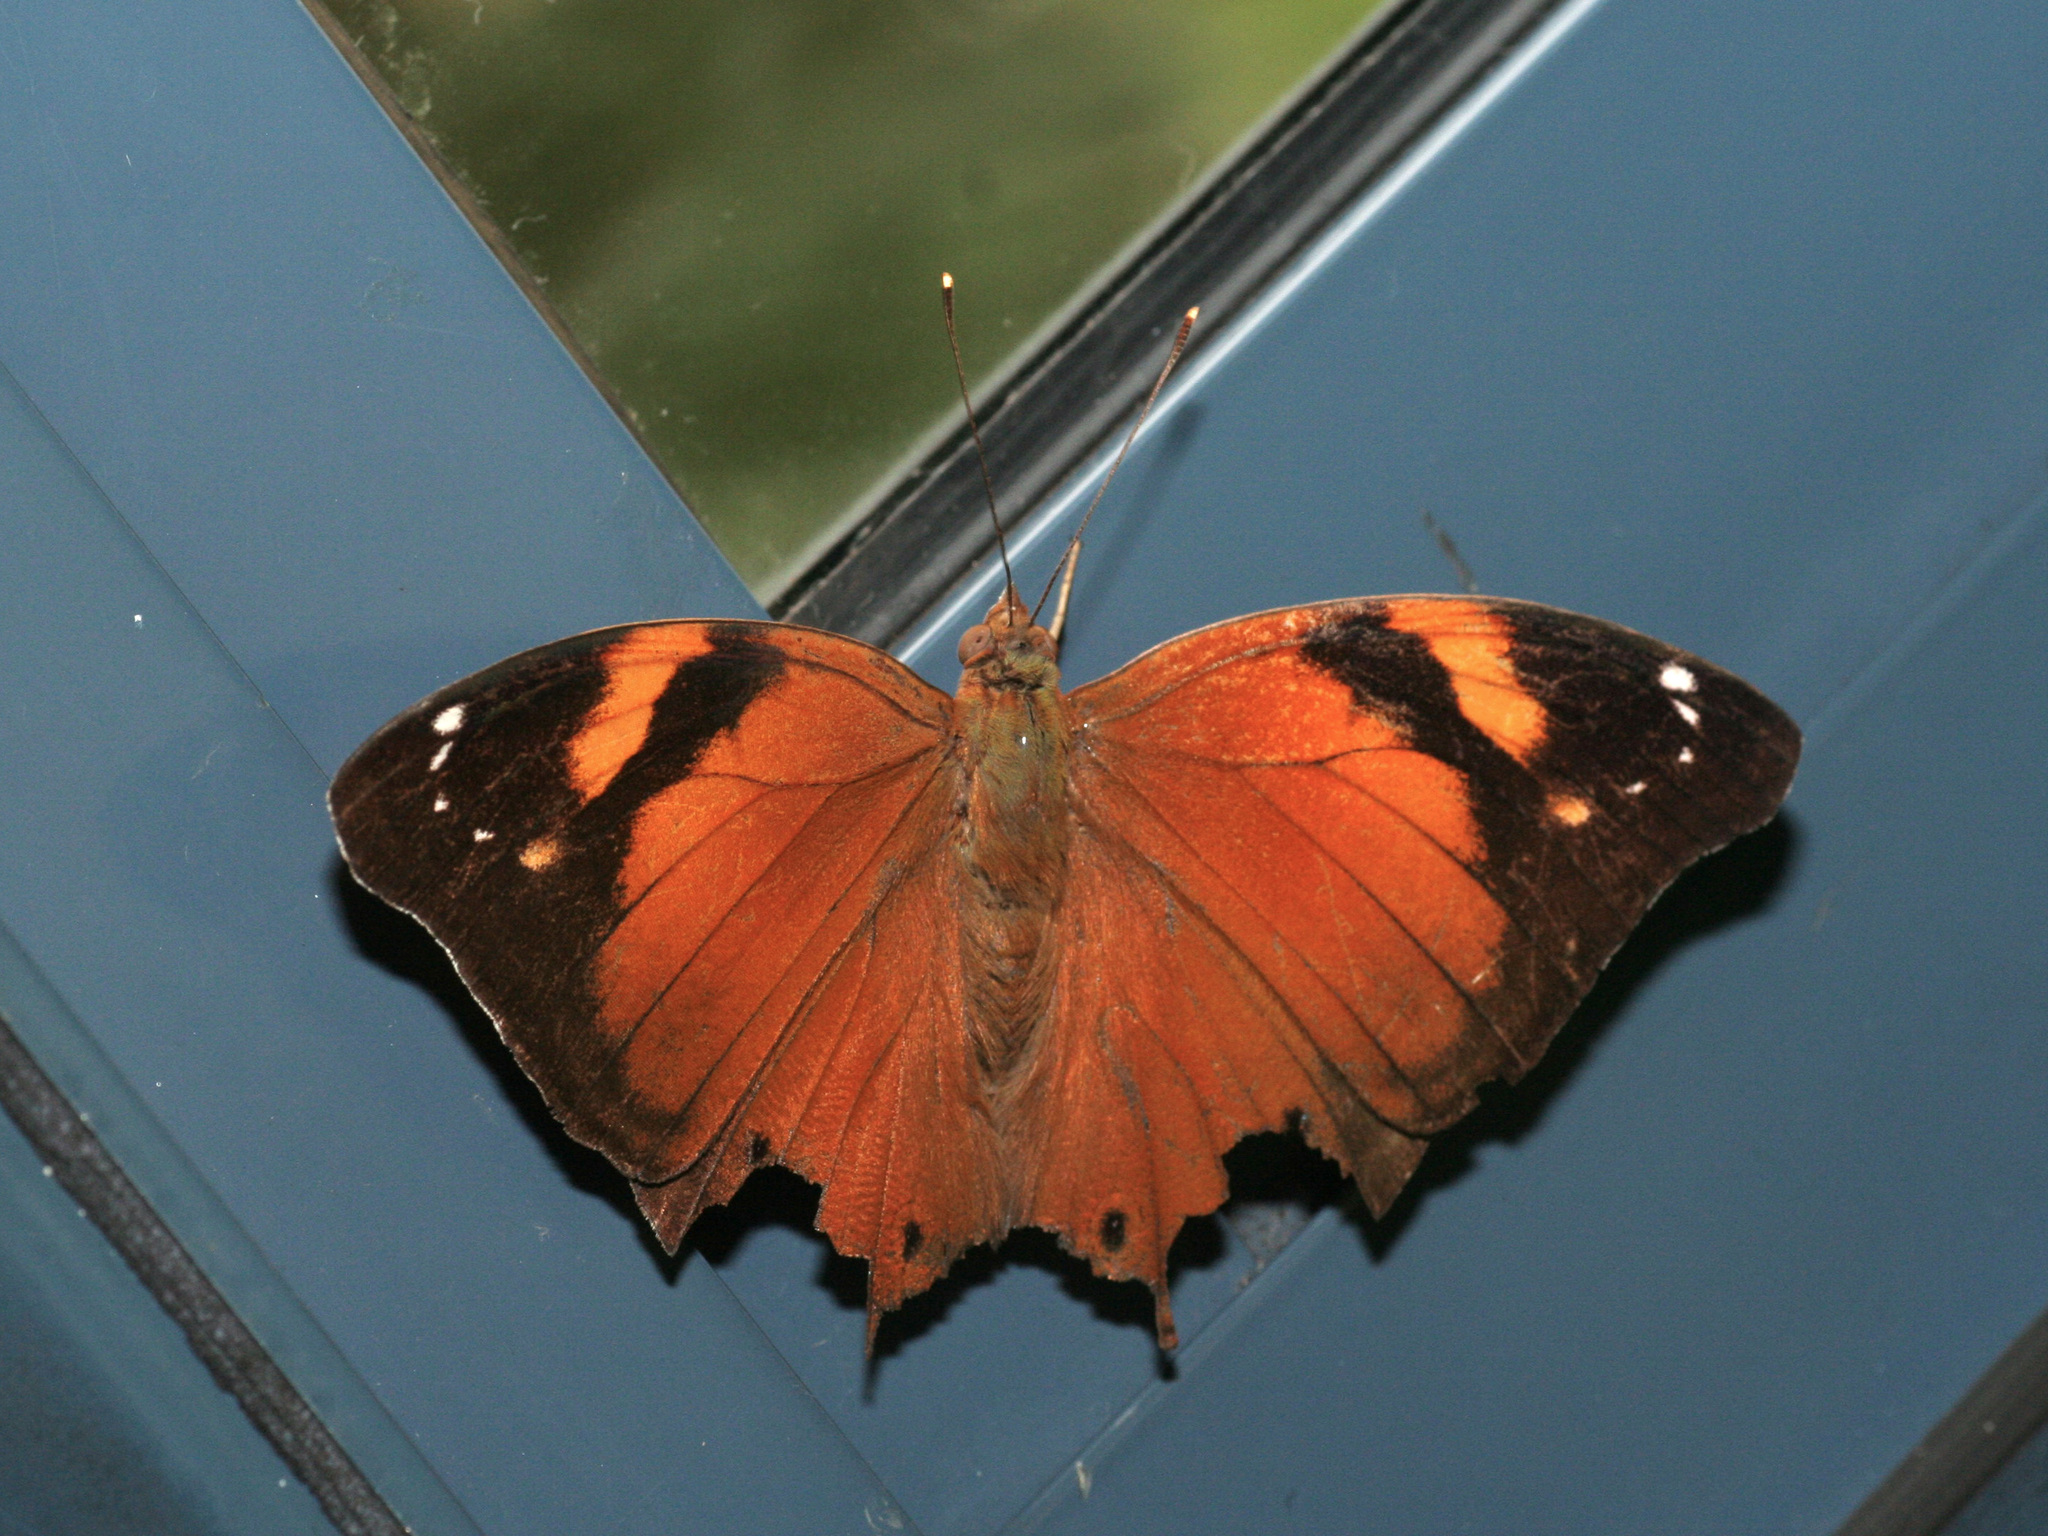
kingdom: Animalia
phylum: Arthropoda
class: Insecta
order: Lepidoptera
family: Nymphalidae
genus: Doleschallia
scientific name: Doleschallia bisaltide
